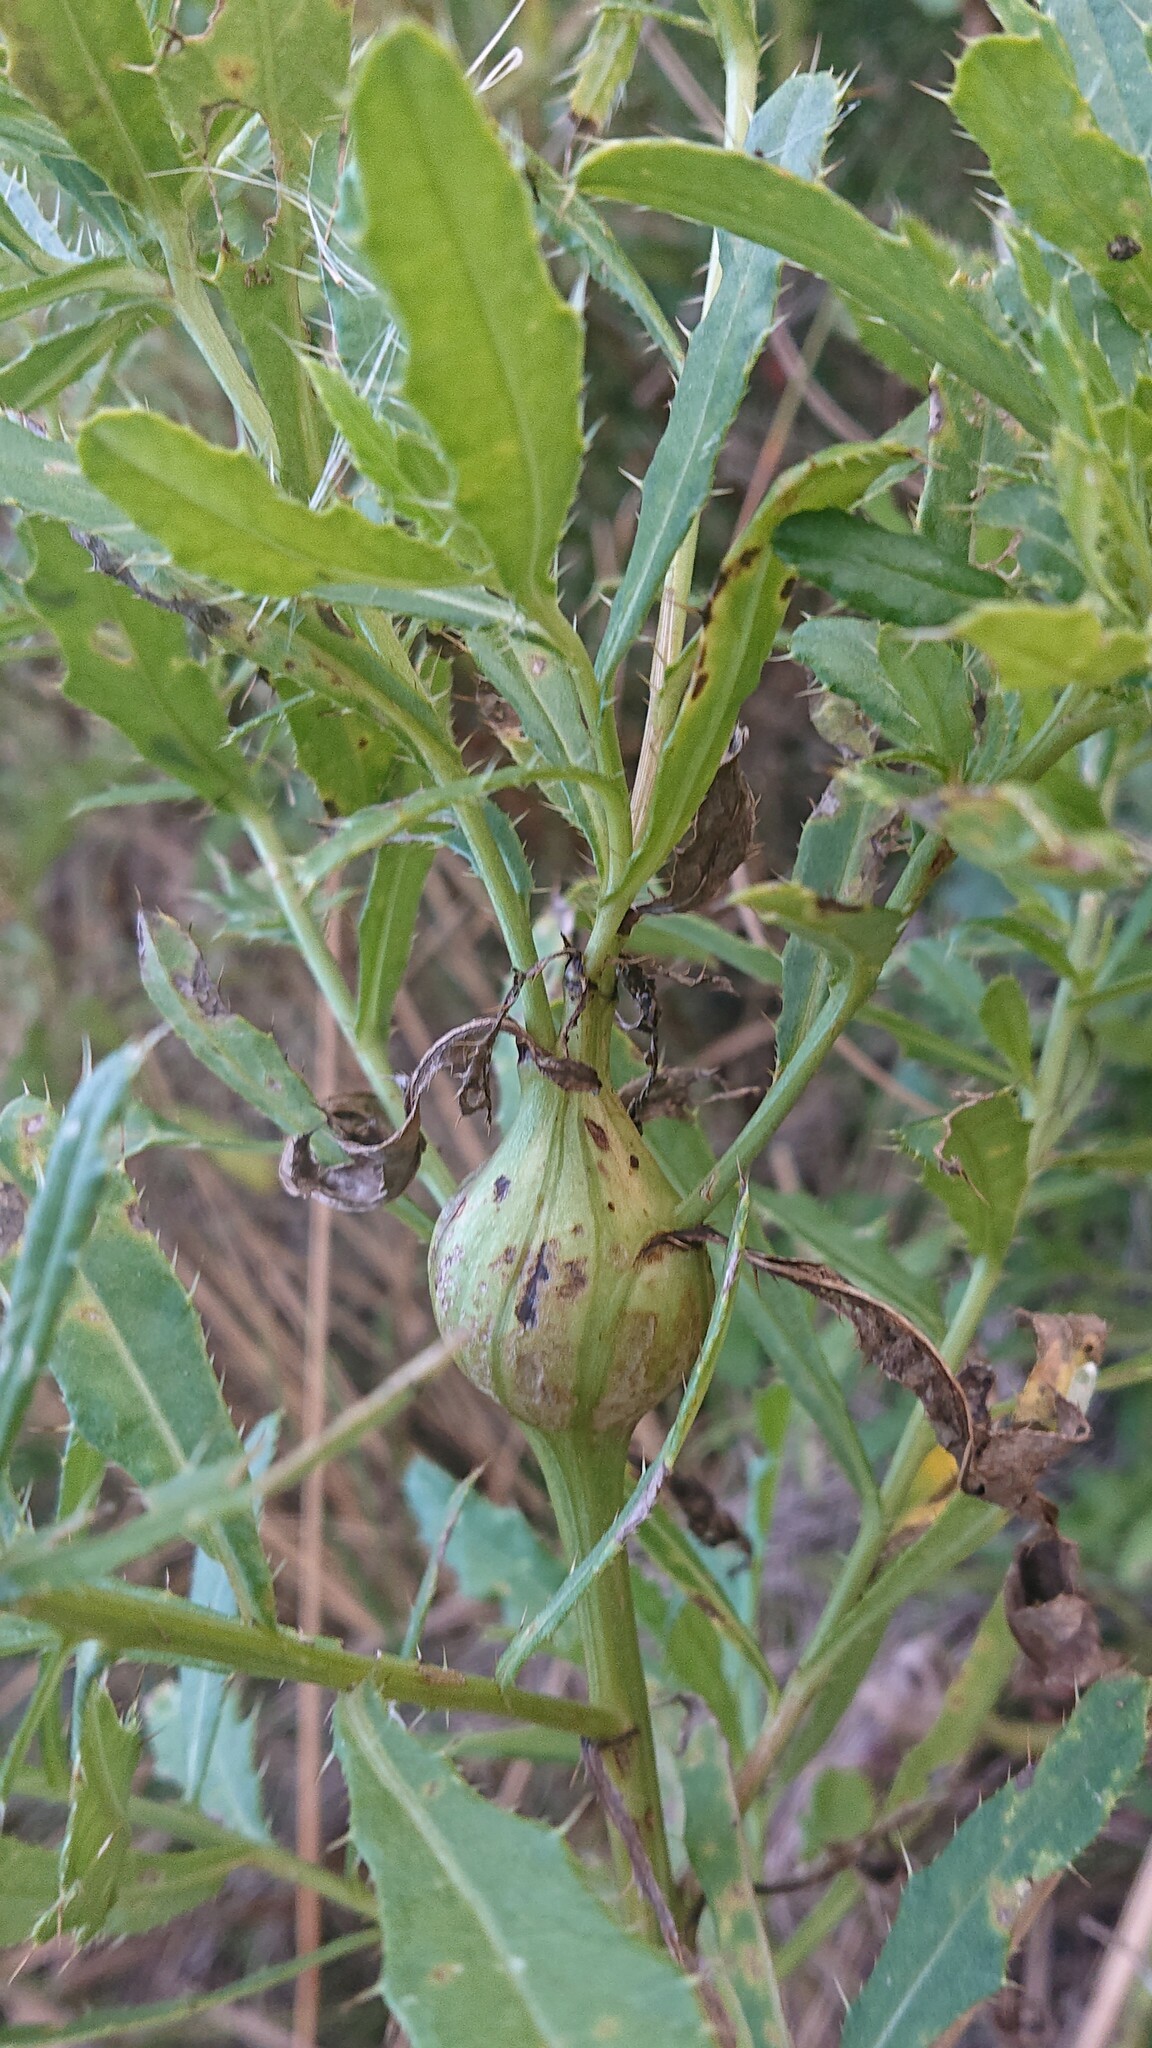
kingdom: Animalia
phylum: Arthropoda
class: Insecta
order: Diptera
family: Tephritidae
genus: Urophora
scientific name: Urophora cardui
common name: Fruit fly
